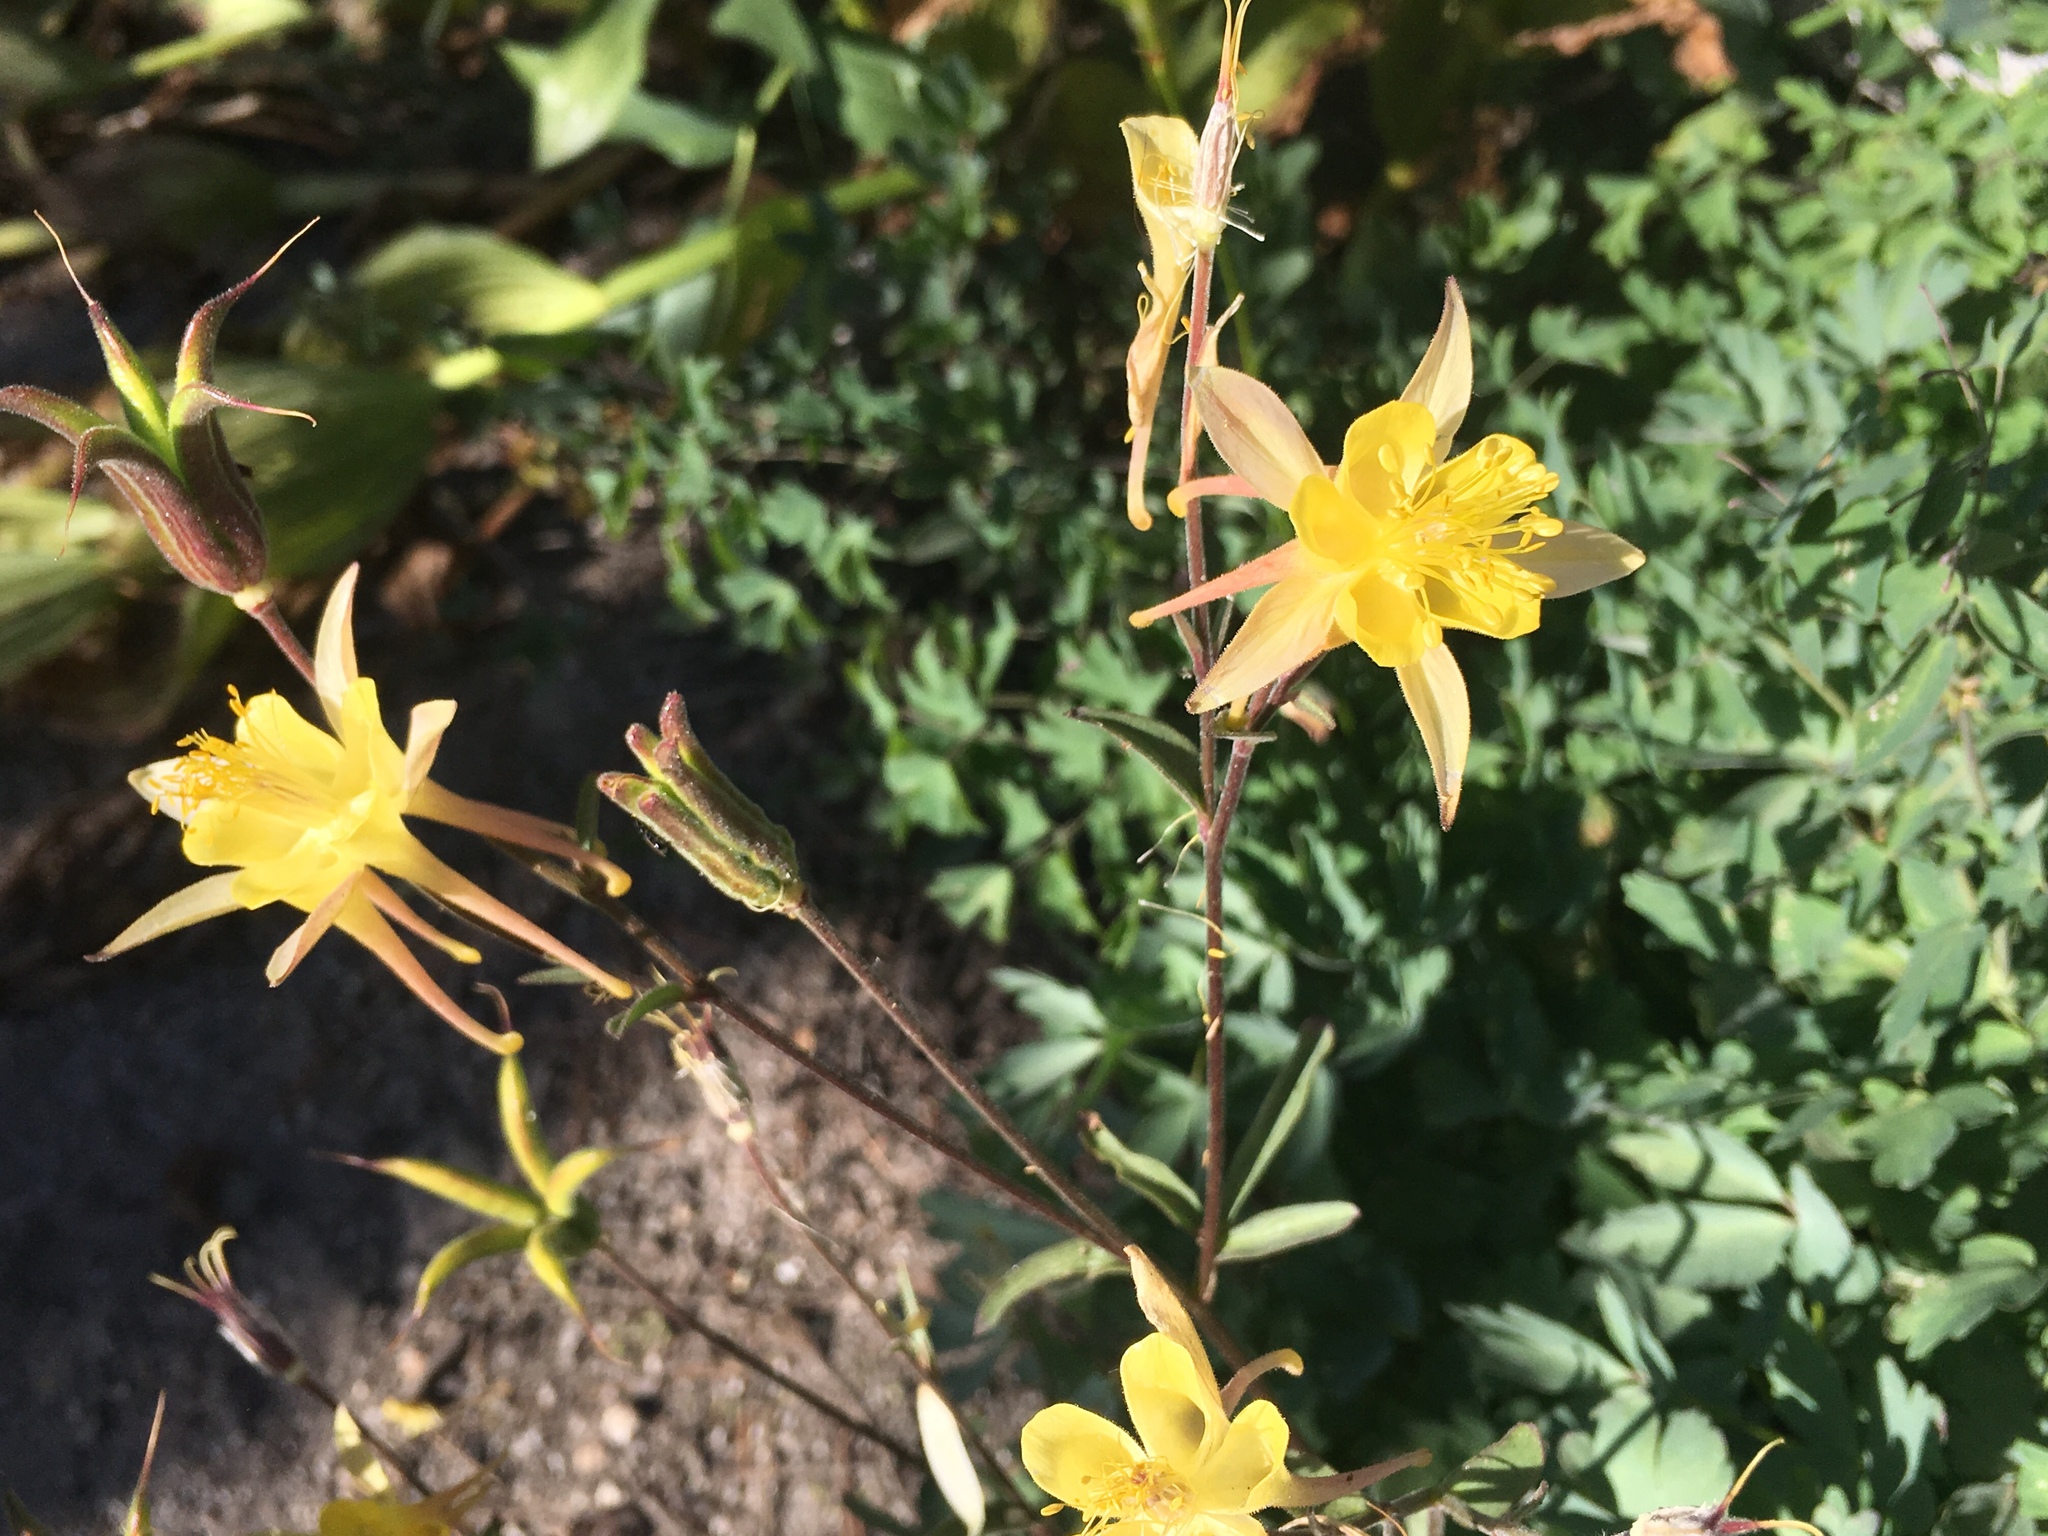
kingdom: Plantae
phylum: Tracheophyta
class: Magnoliopsida
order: Ranunculales
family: Ranunculaceae
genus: Aquilegia
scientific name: Aquilegia pubescens
